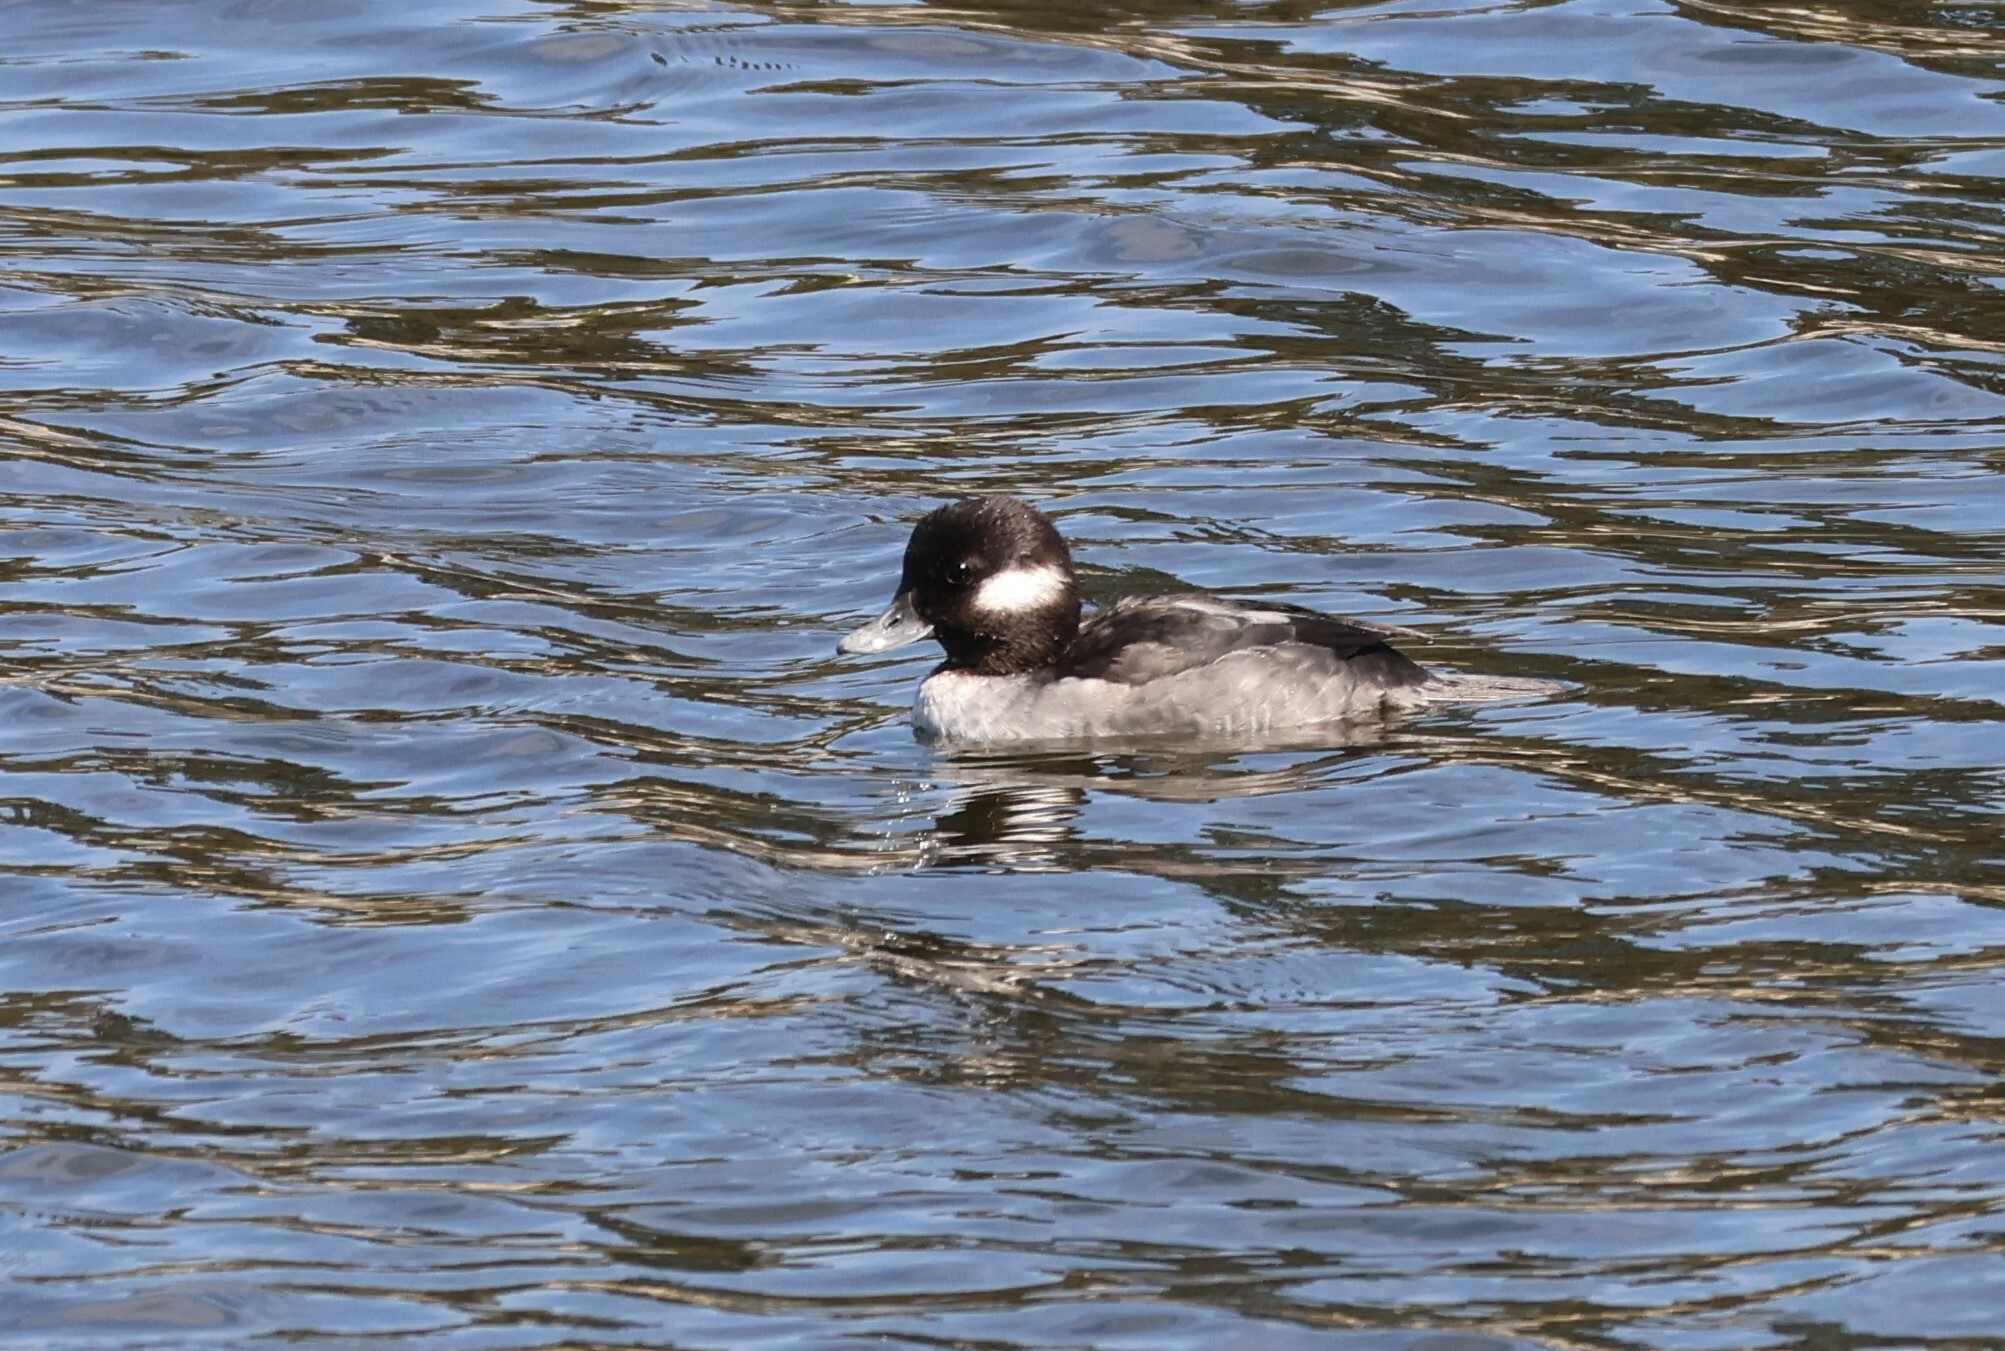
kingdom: Animalia
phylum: Chordata
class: Aves
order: Anseriformes
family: Anatidae
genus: Bucephala
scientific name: Bucephala albeola
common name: Bufflehead
